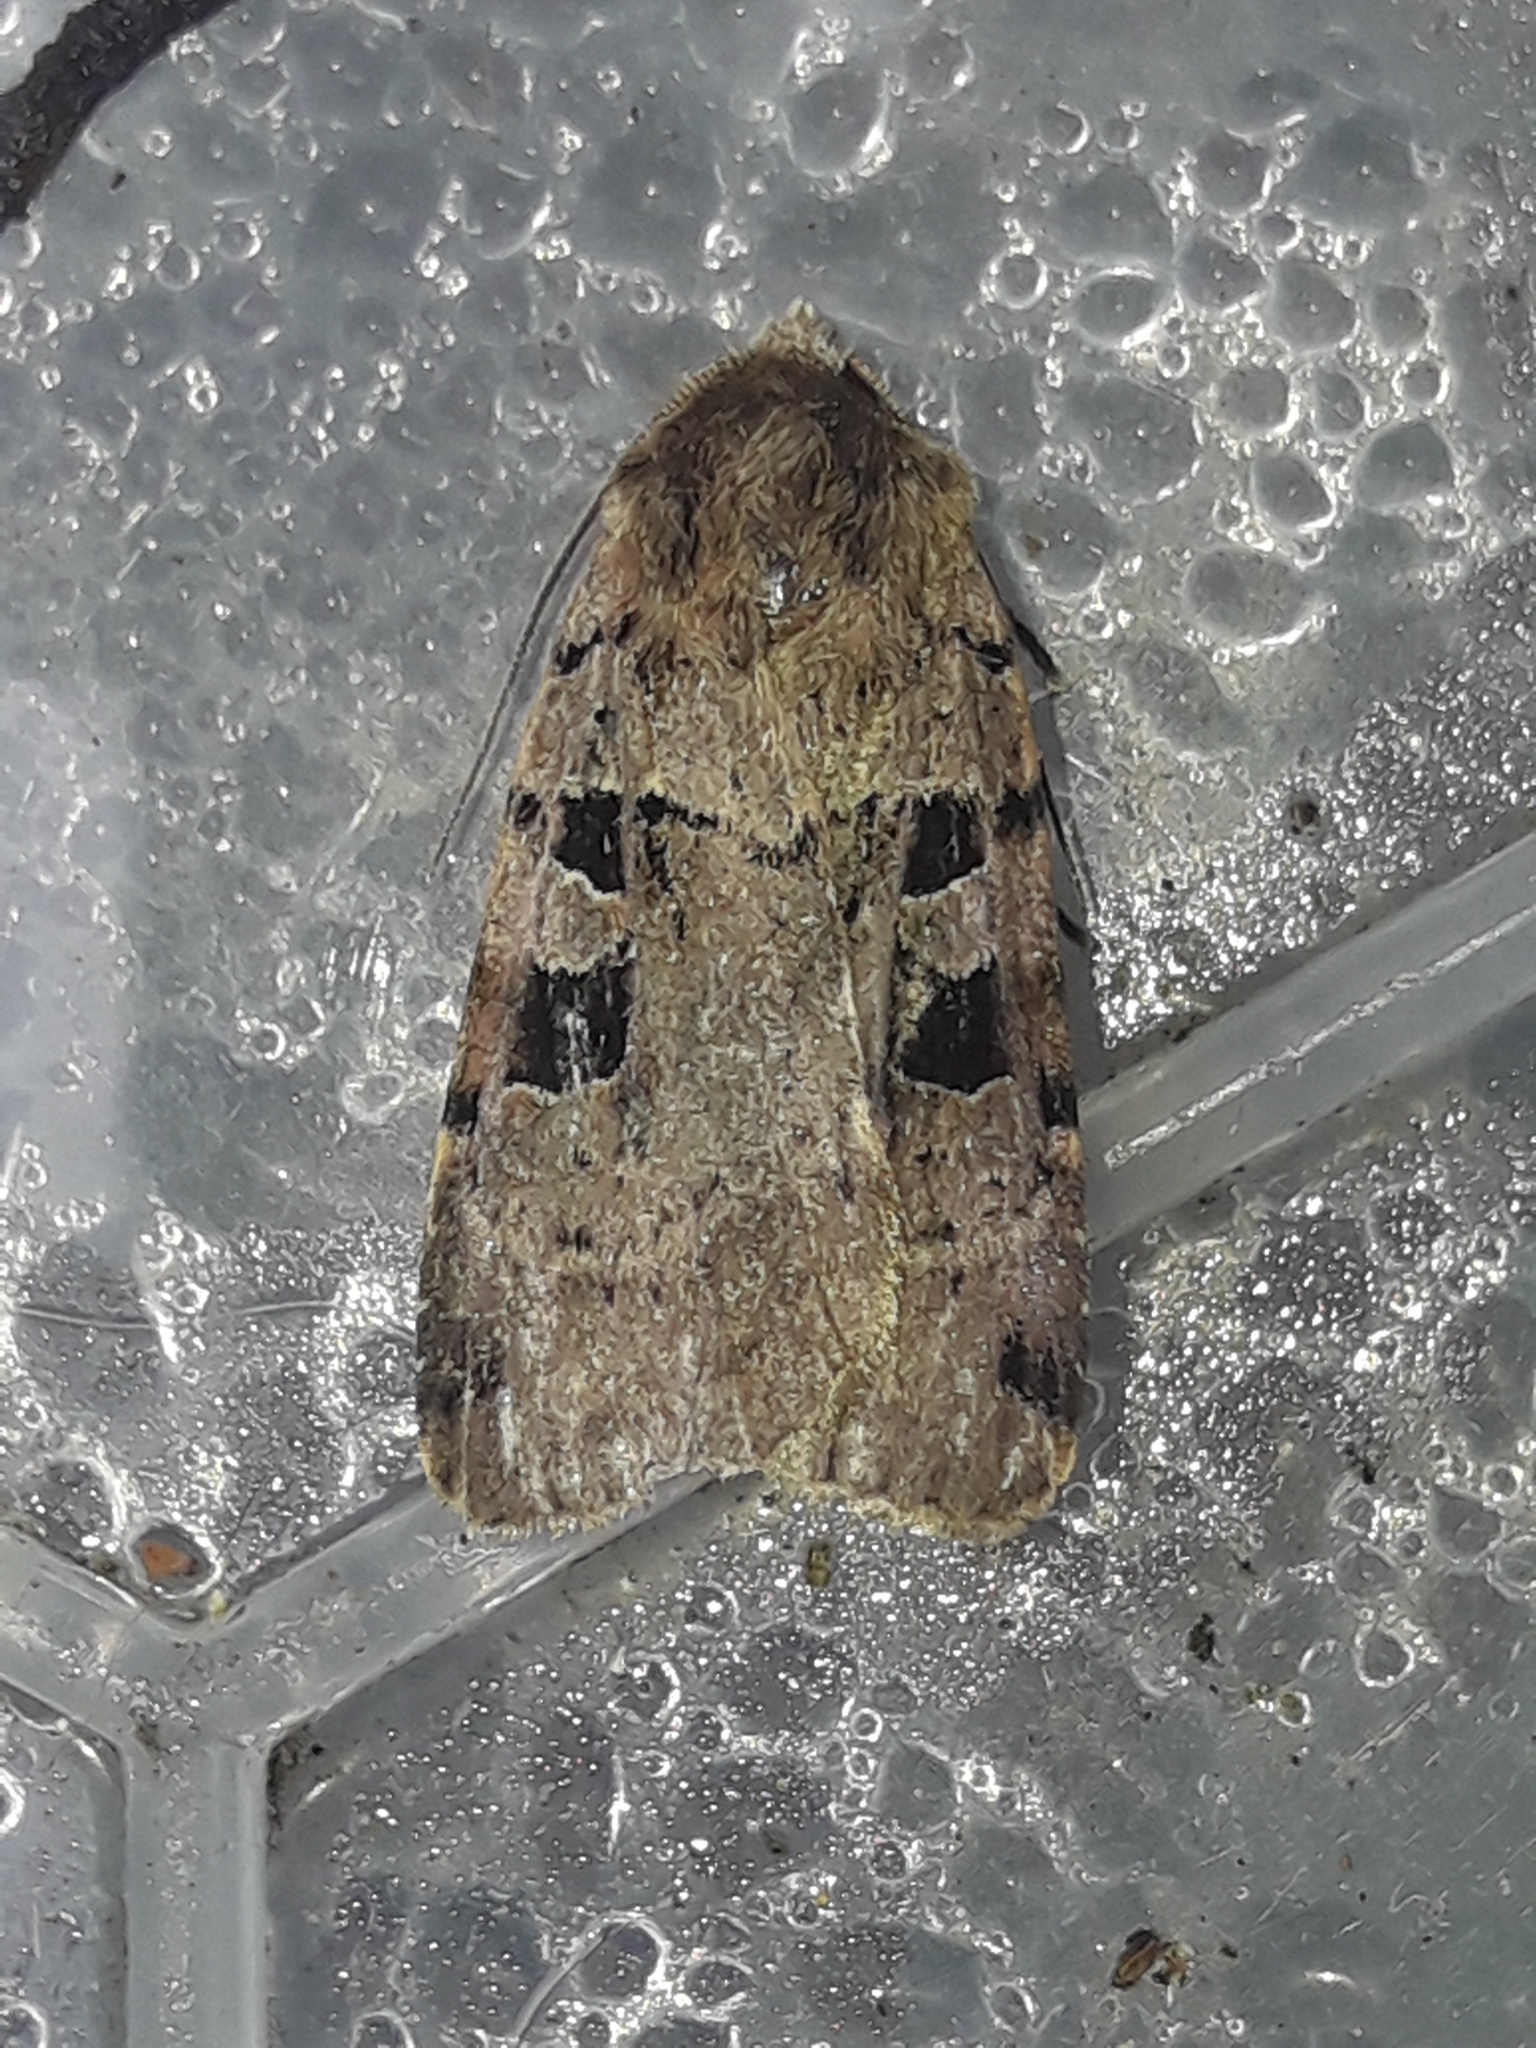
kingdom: Animalia
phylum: Arthropoda
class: Insecta
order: Lepidoptera
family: Noctuidae
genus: Xestia
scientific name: Xestia triangulum
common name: Double square-spot
